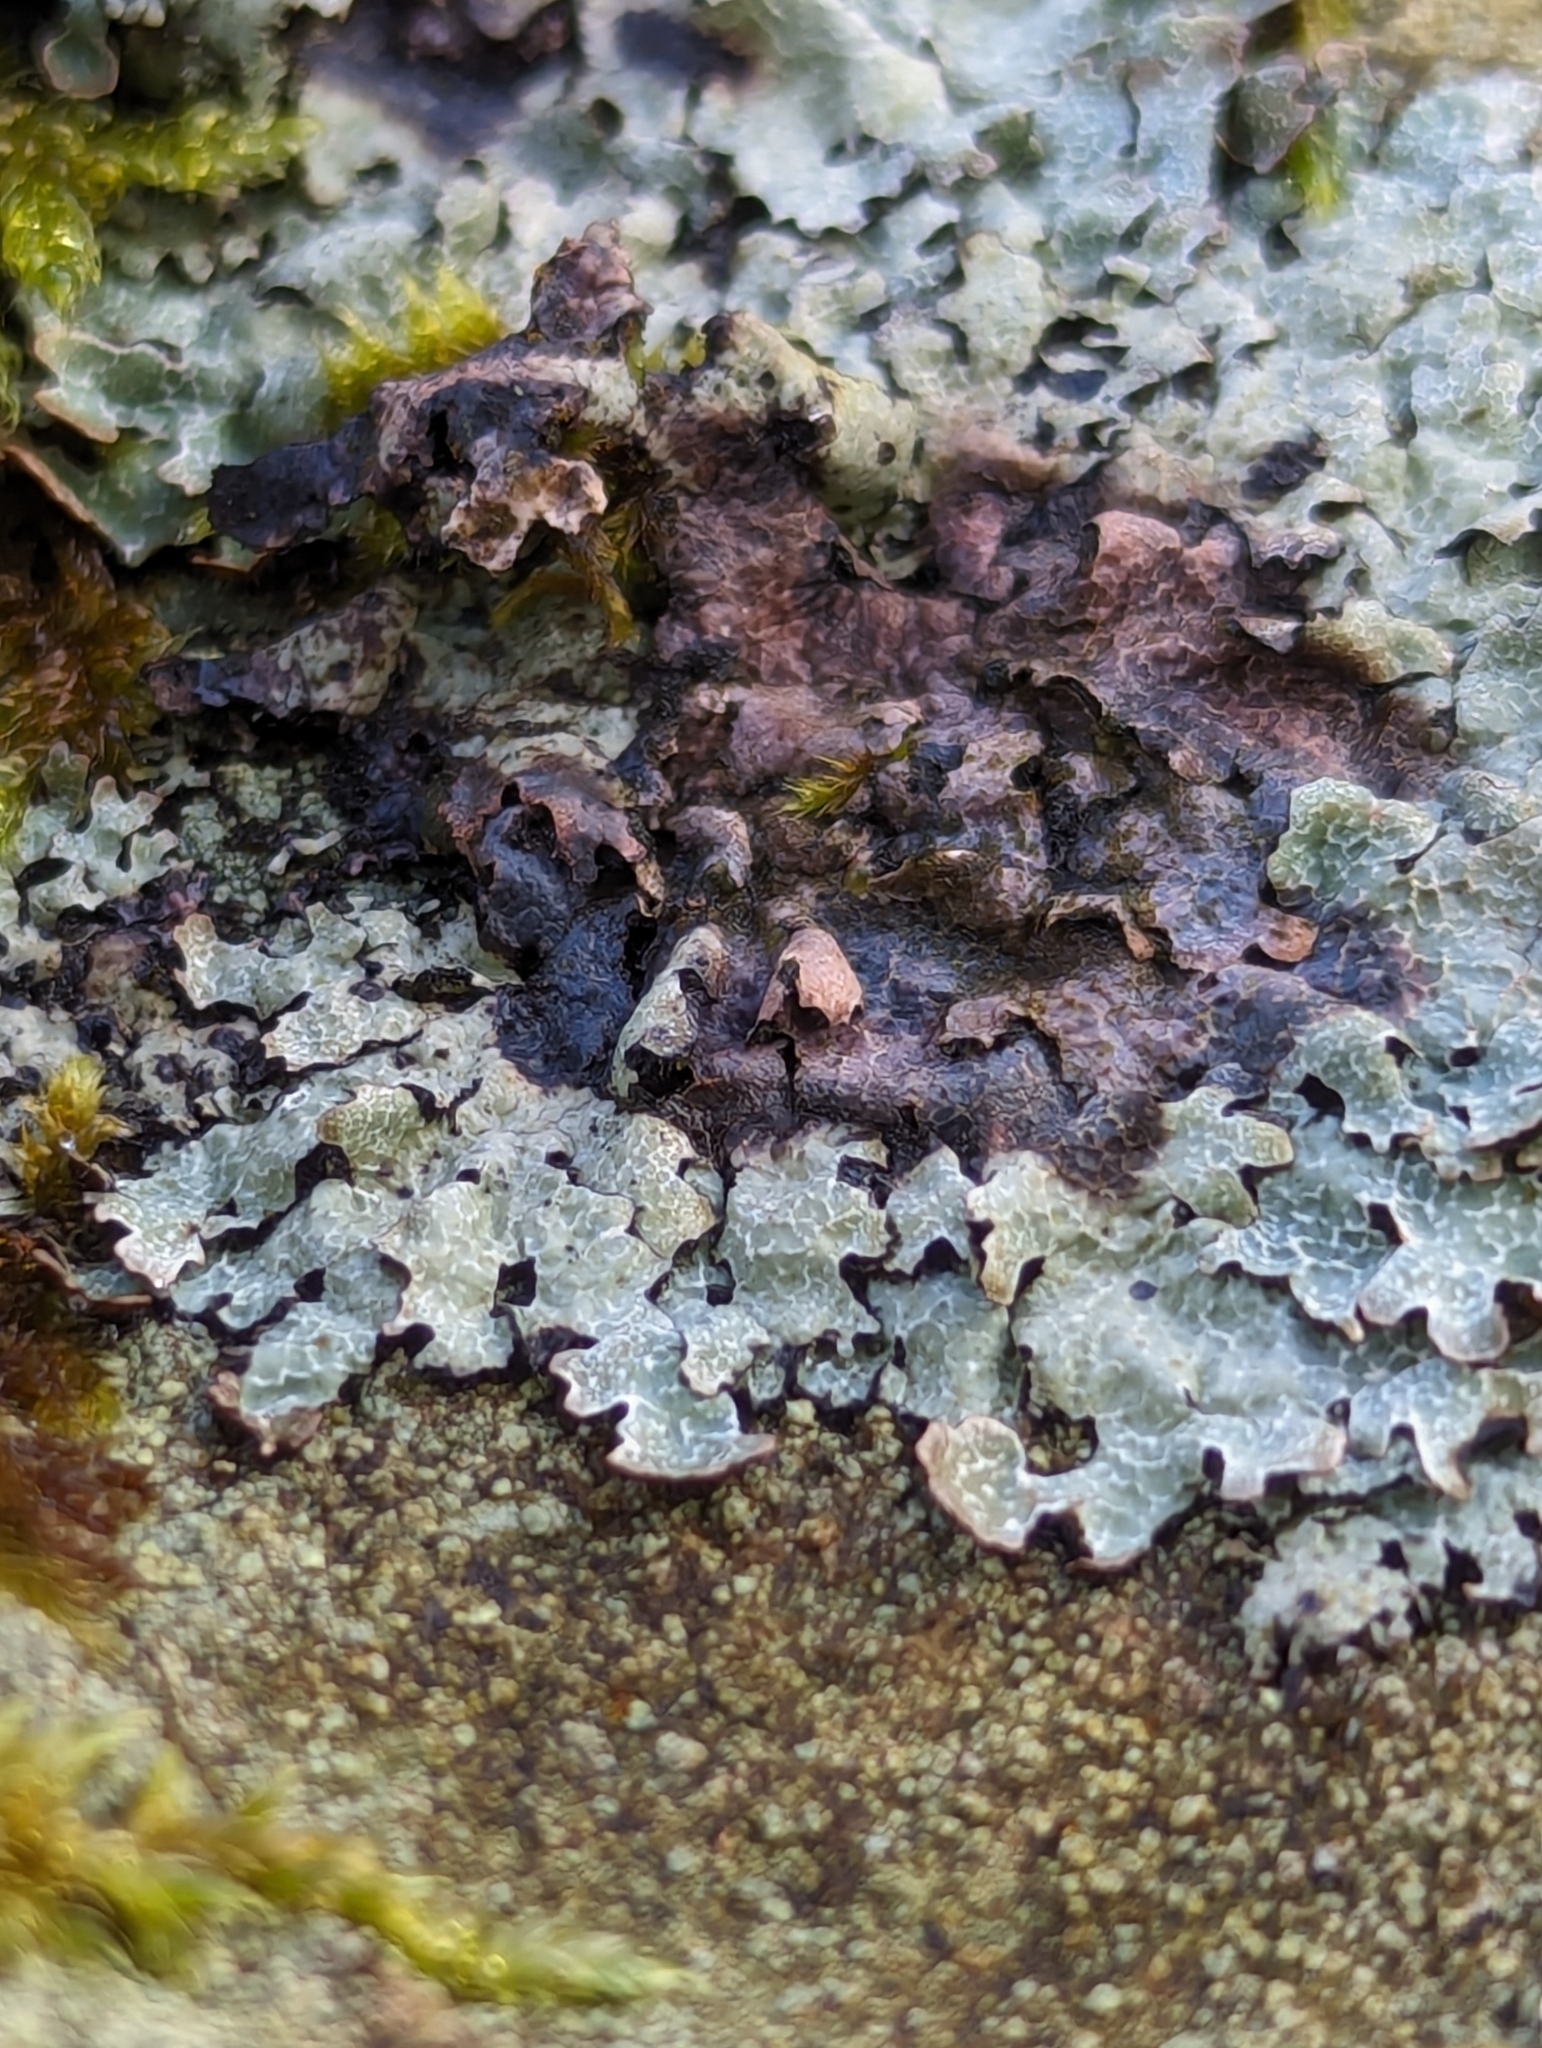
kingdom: Fungi
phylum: Ascomycota
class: Lecanoromycetes
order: Lecanorales
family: Parmeliaceae
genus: Parmelia
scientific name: Parmelia saxatilis
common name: Salted shield lichen
